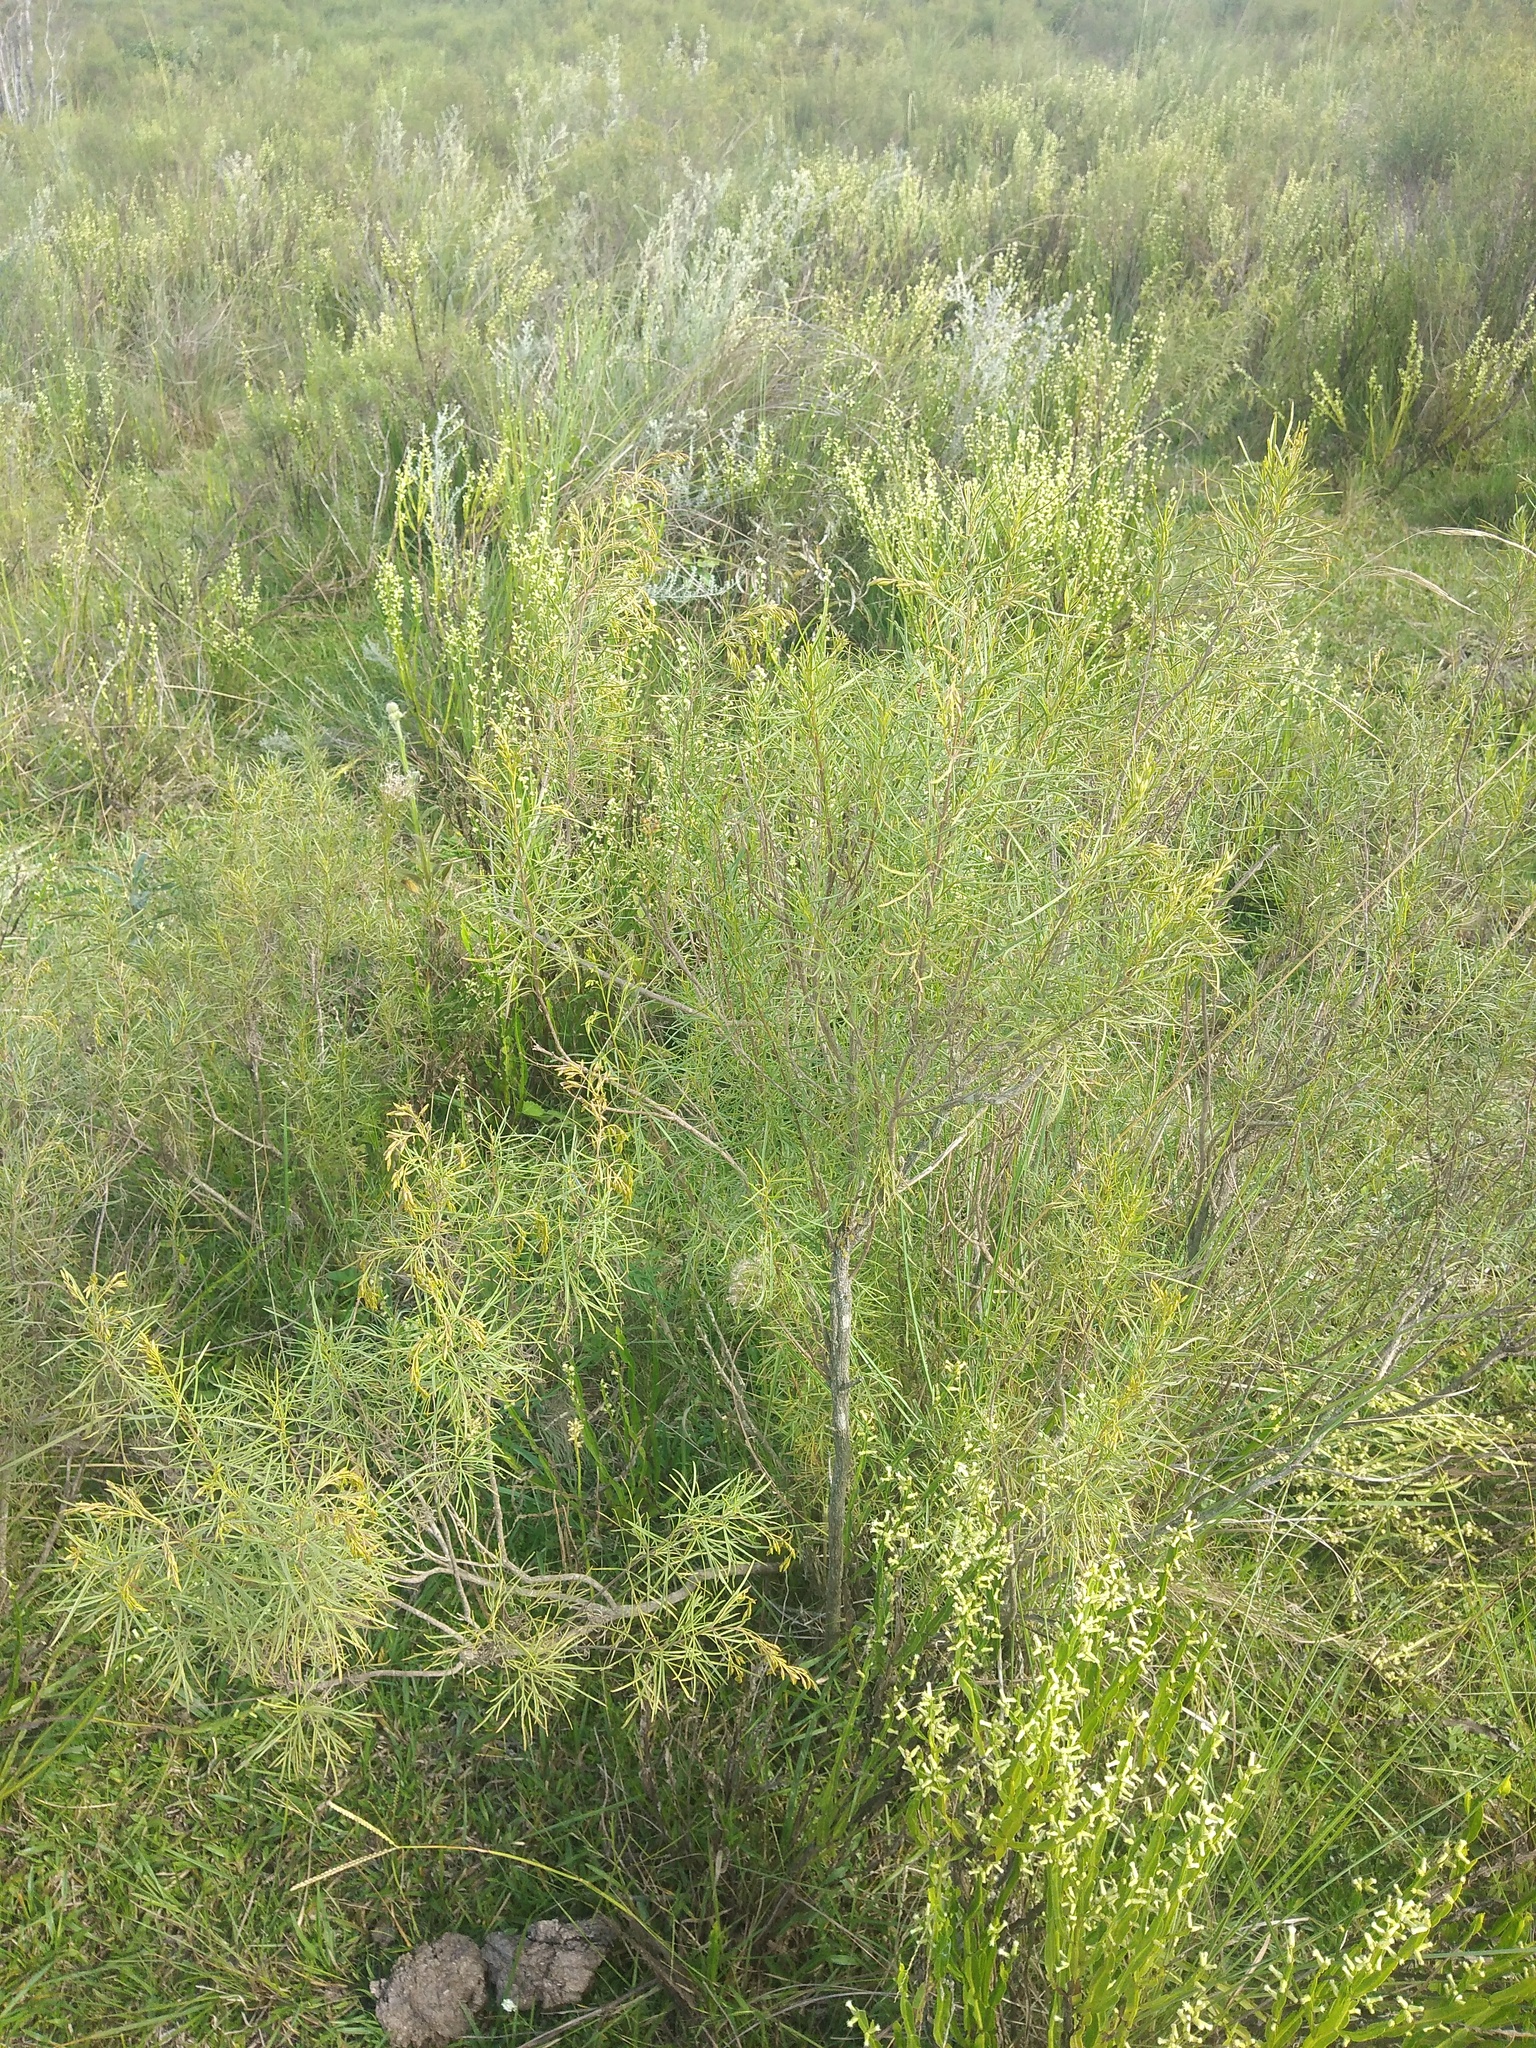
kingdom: Plantae
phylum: Tracheophyta
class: Magnoliopsida
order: Asterales
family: Asteraceae
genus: Acanthostyles
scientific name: Acanthostyles buniifolius
